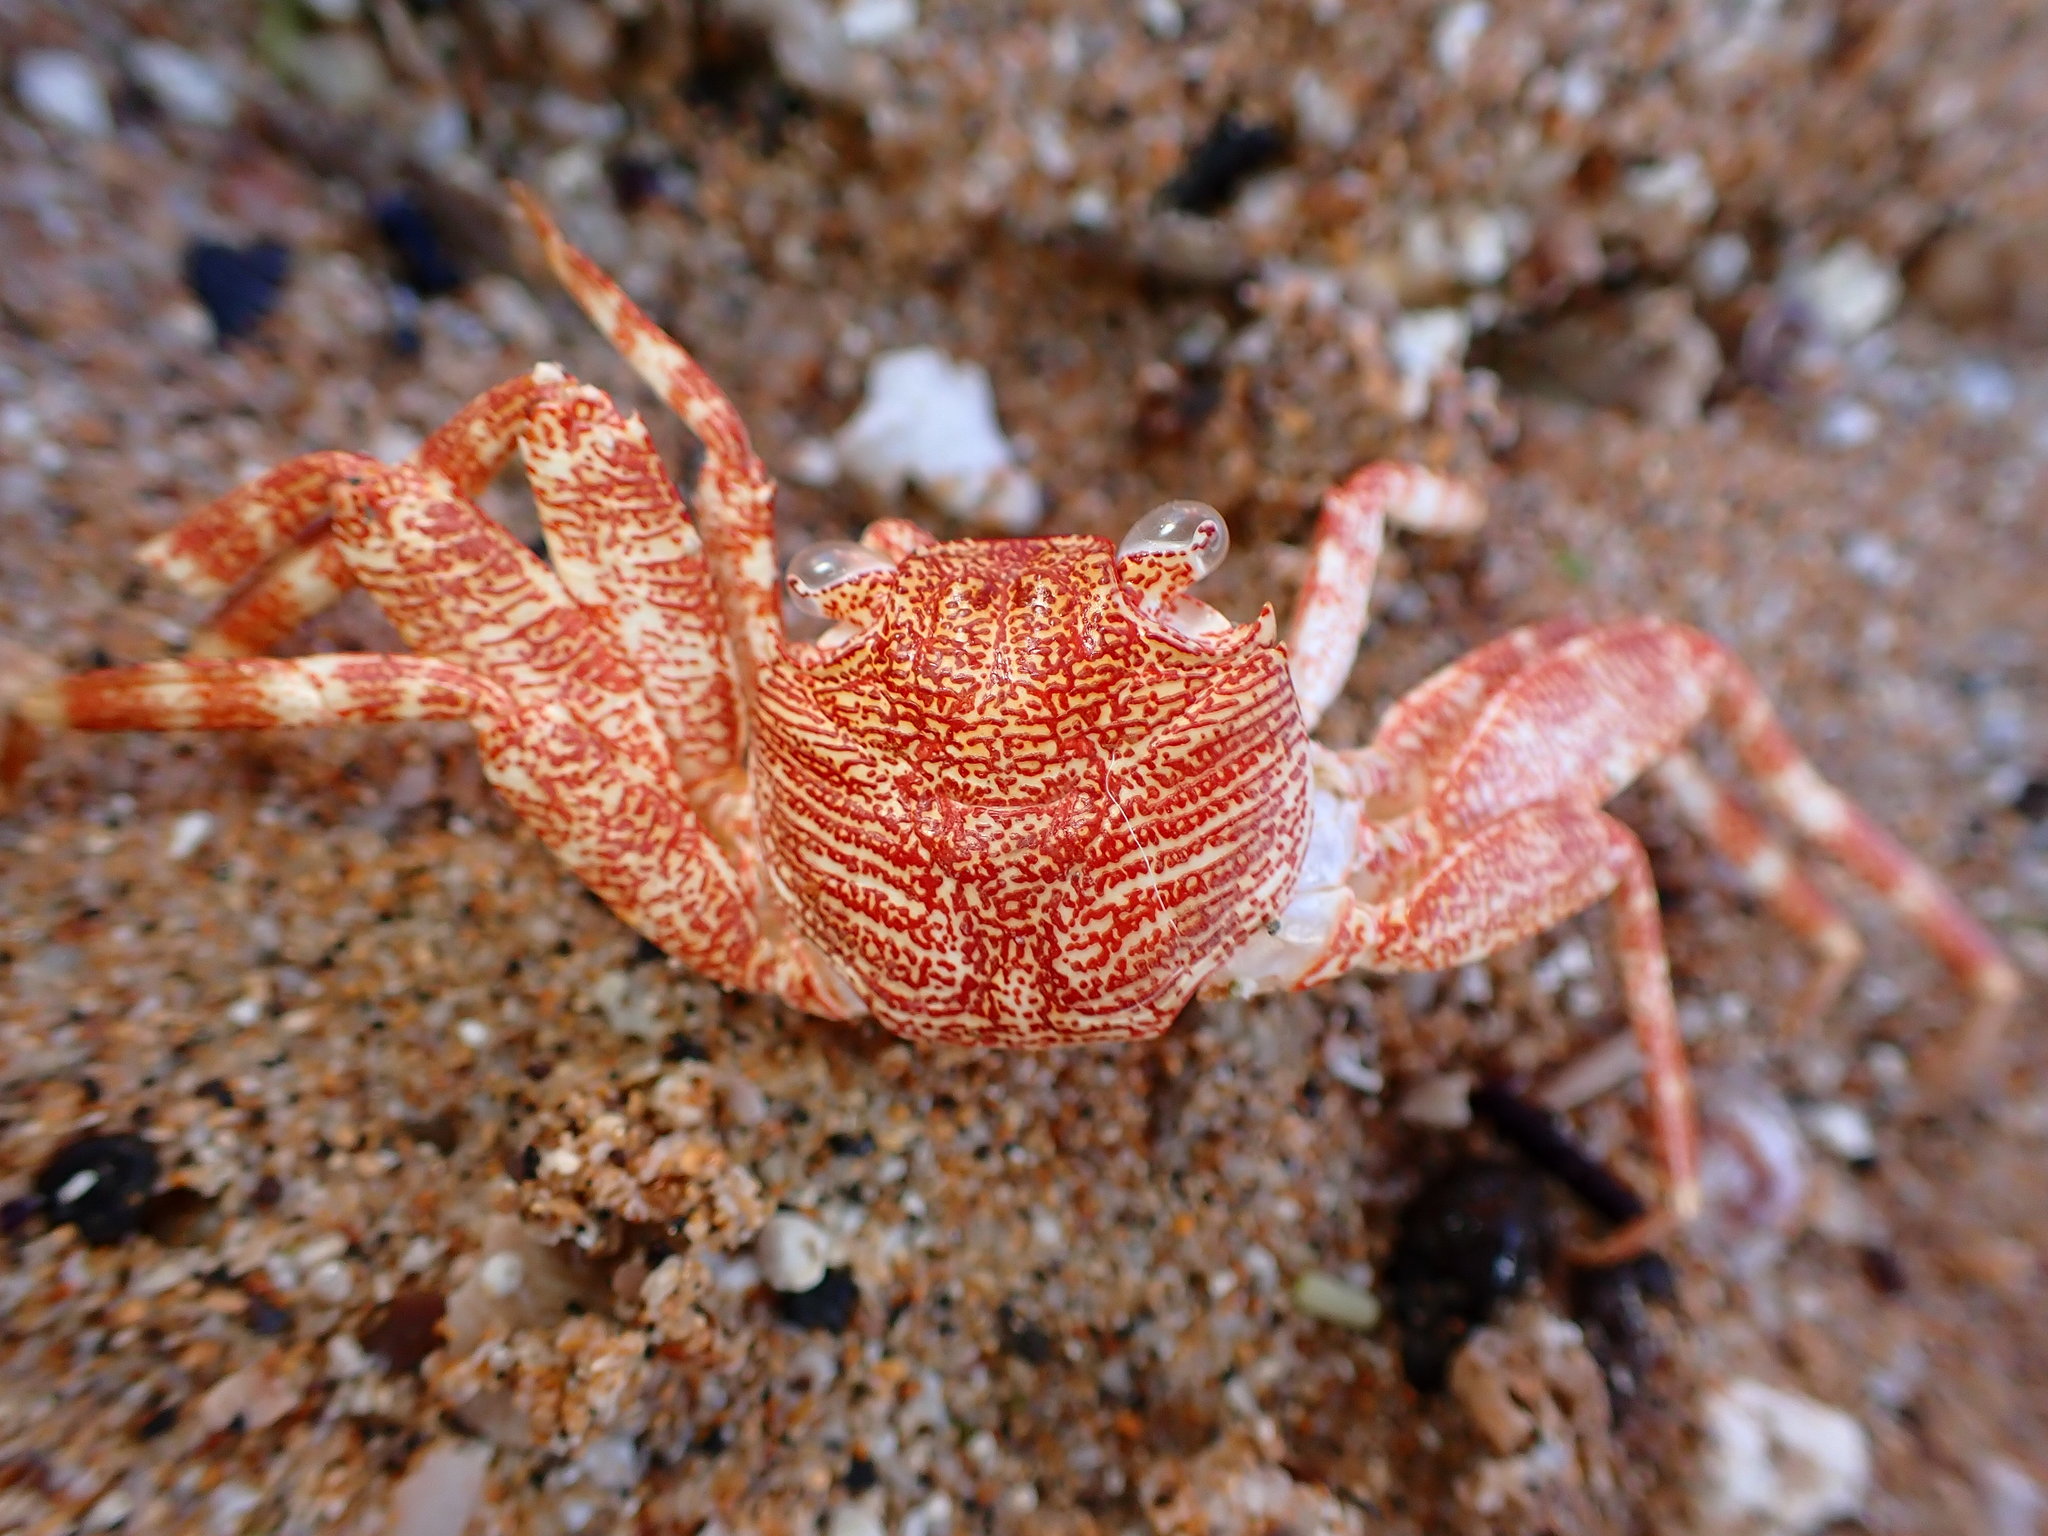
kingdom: Animalia
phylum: Arthropoda
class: Malacostraca
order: Decapoda
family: Grapsidae
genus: Grapsus
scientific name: Grapsus tenuicrustatus
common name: Natal lightfoot crab
